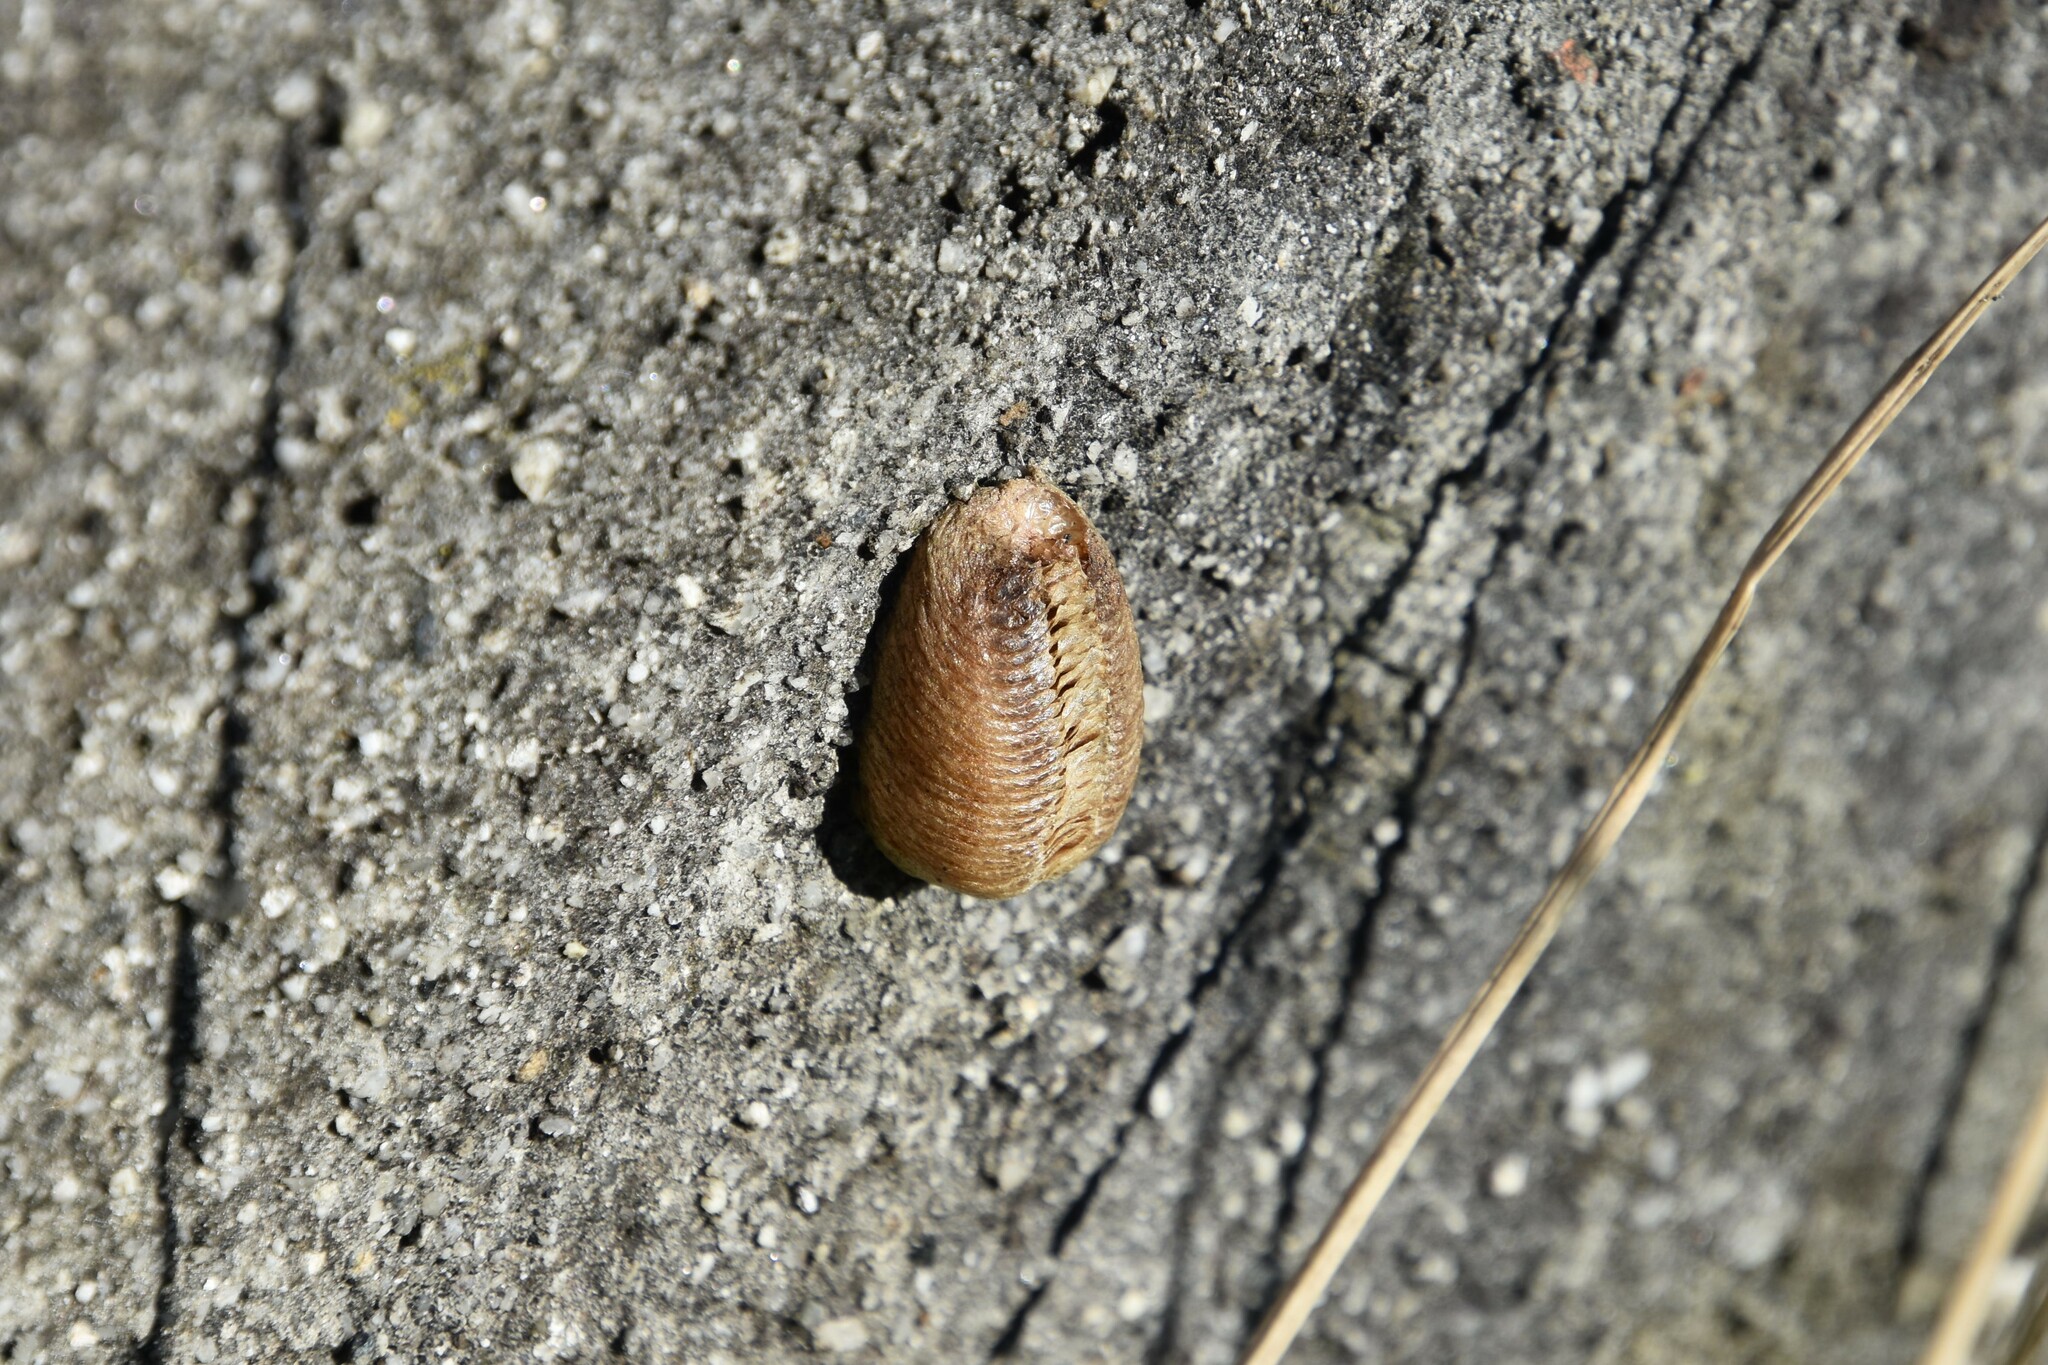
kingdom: Animalia
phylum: Arthropoda
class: Insecta
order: Mantodea
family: Mantidae
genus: Mantis
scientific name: Mantis religiosa
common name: Praying mantis
